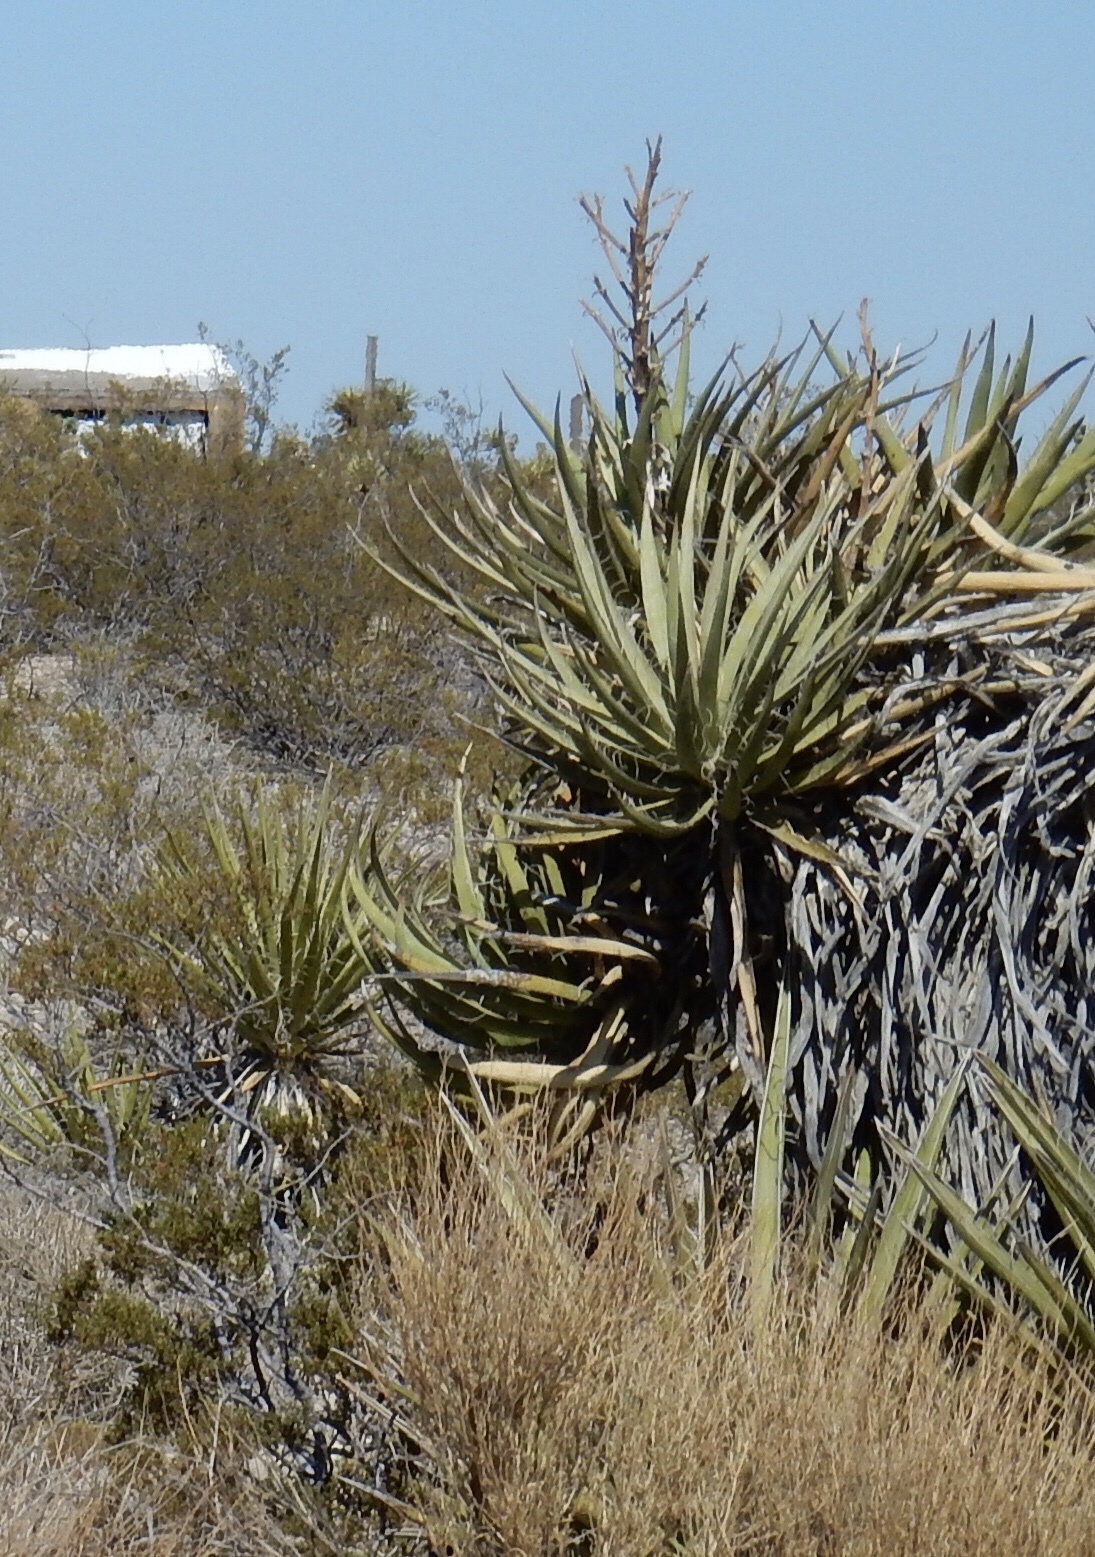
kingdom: Plantae
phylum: Tracheophyta
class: Liliopsida
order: Asparagales
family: Asparagaceae
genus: Yucca
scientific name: Yucca schidigera
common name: Mojave yucca
